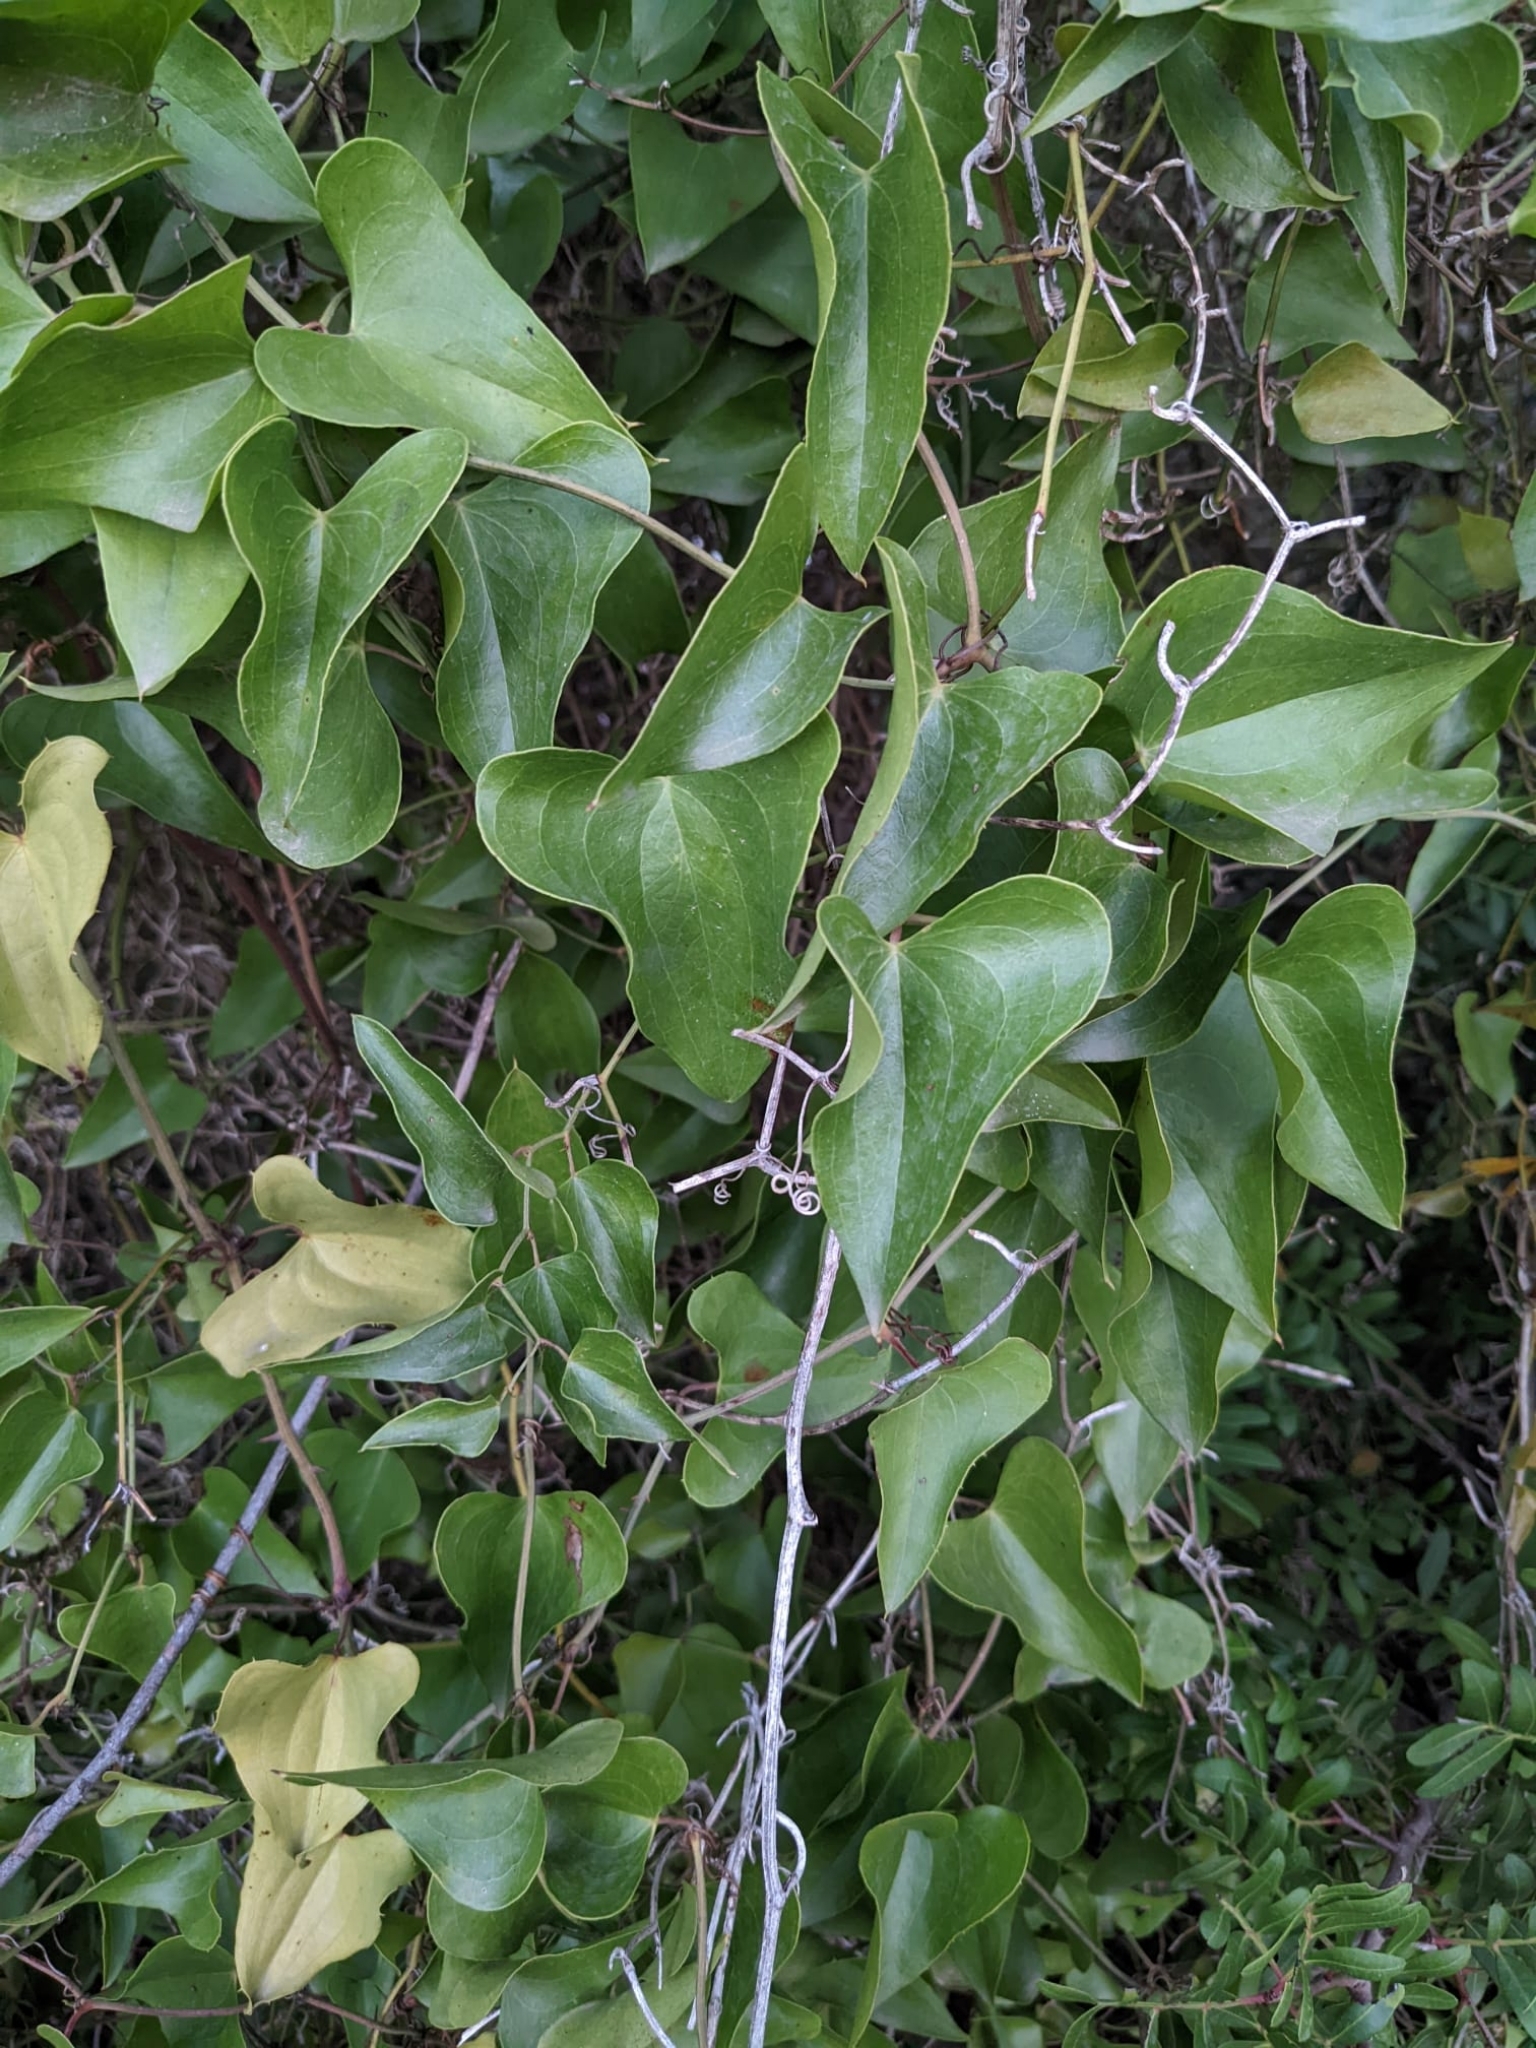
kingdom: Plantae
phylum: Tracheophyta
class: Liliopsida
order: Liliales
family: Smilacaceae
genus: Smilax
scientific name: Smilax aspera
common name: Common smilax
